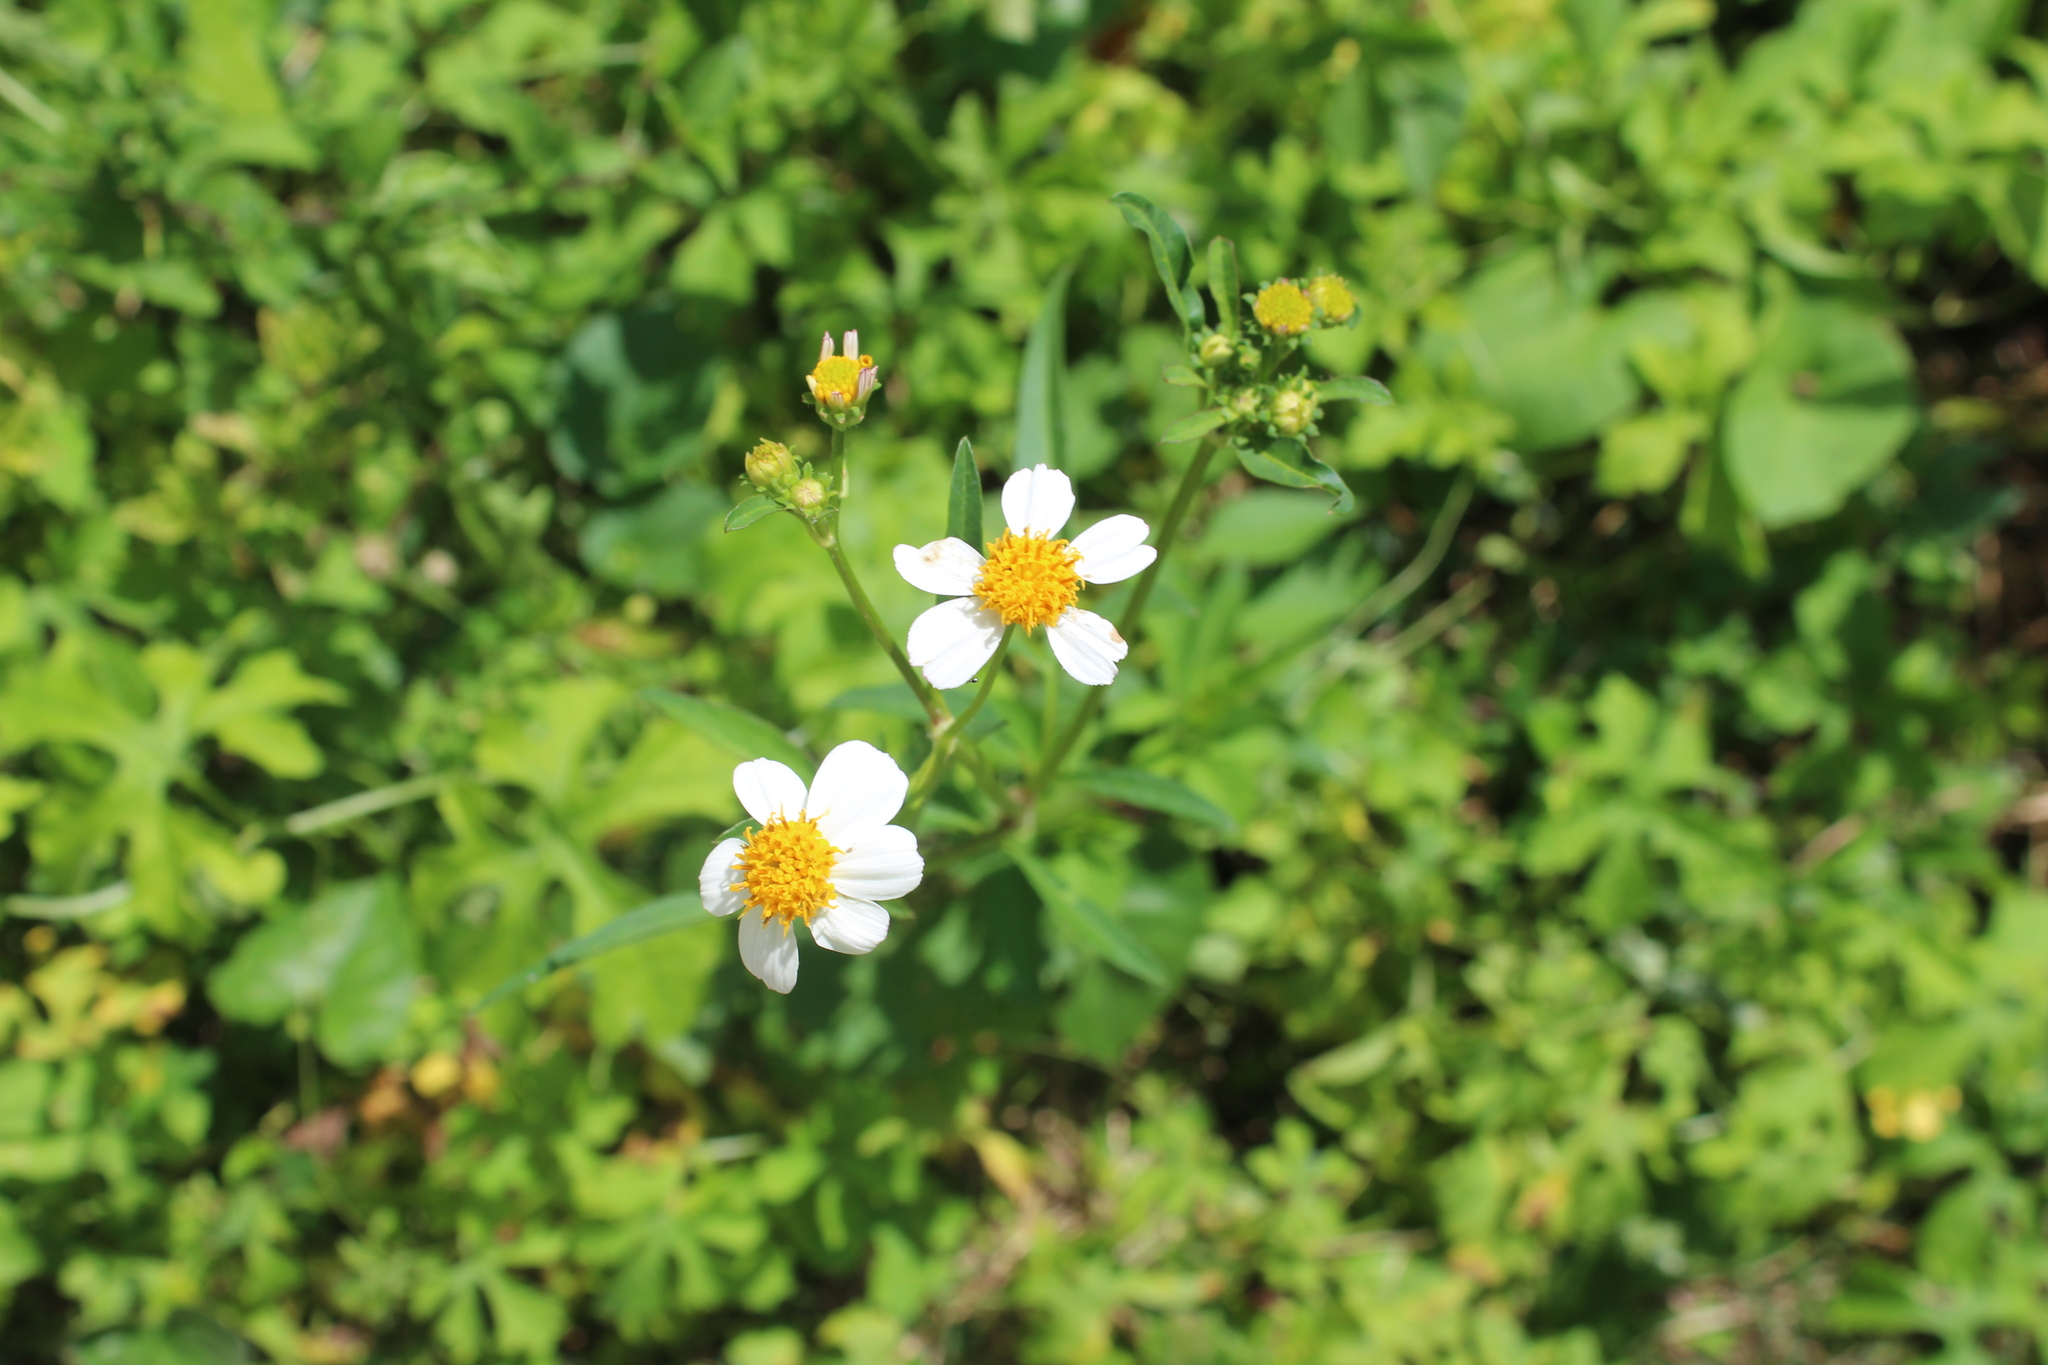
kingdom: Plantae
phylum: Tracheophyta
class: Magnoliopsida
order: Asterales
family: Asteraceae
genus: Bidens
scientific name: Bidens alba
